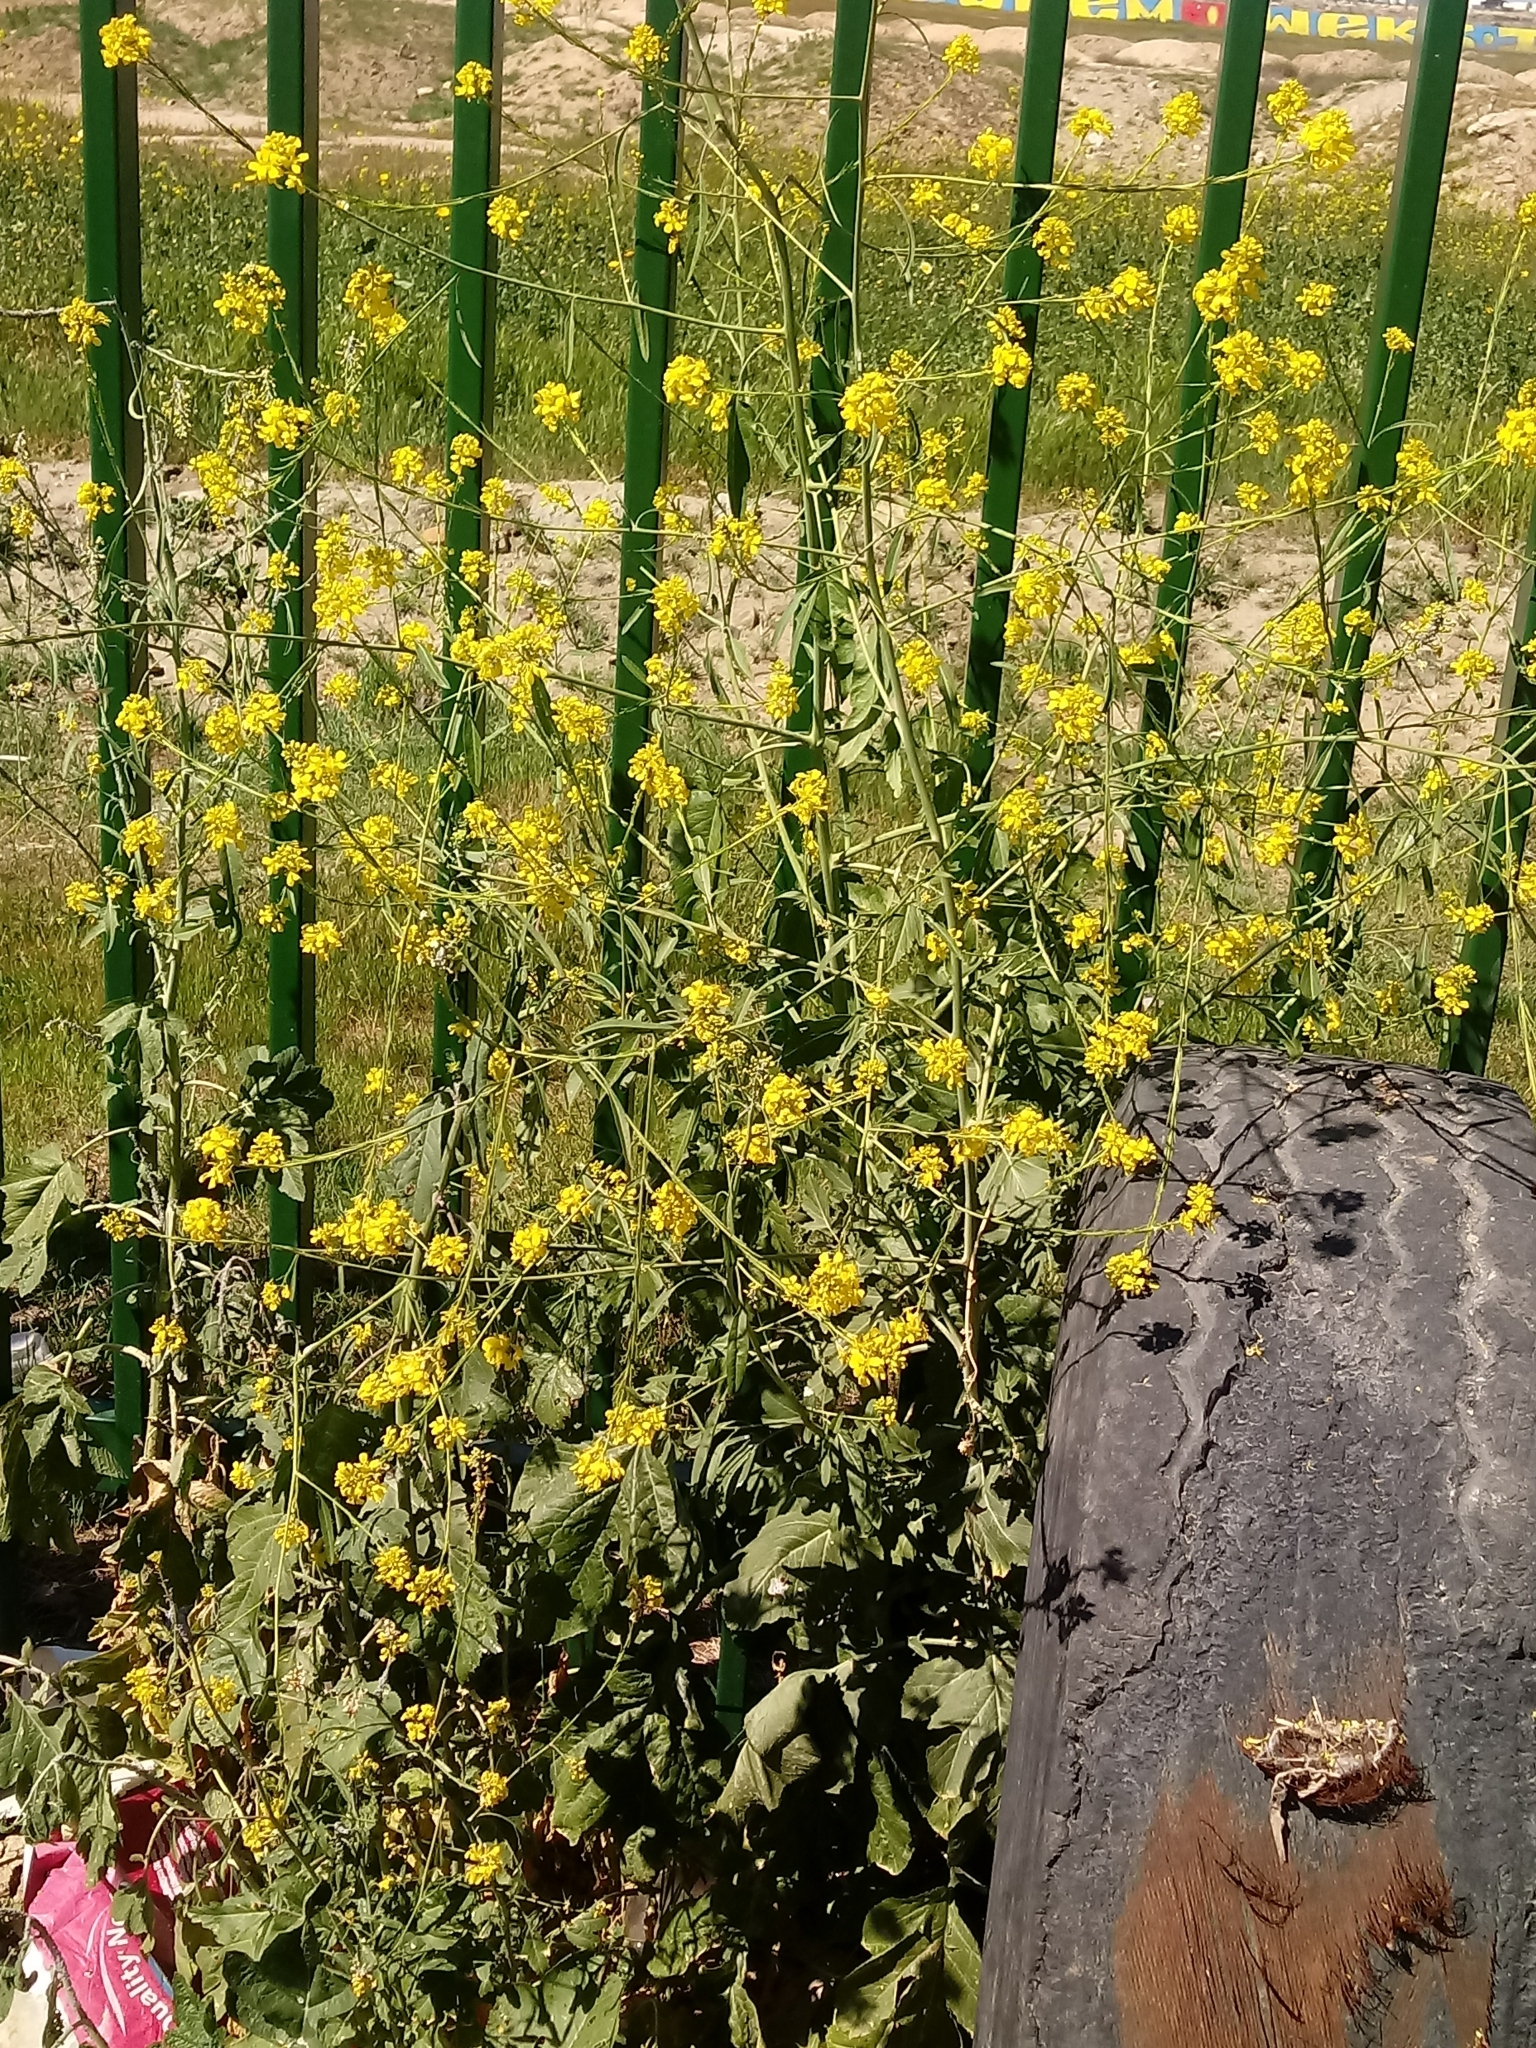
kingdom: Plantae
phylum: Tracheophyta
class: Magnoliopsida
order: Brassicales
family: Brassicaceae
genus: Brassica
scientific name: Brassica nigra
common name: Black mustard
